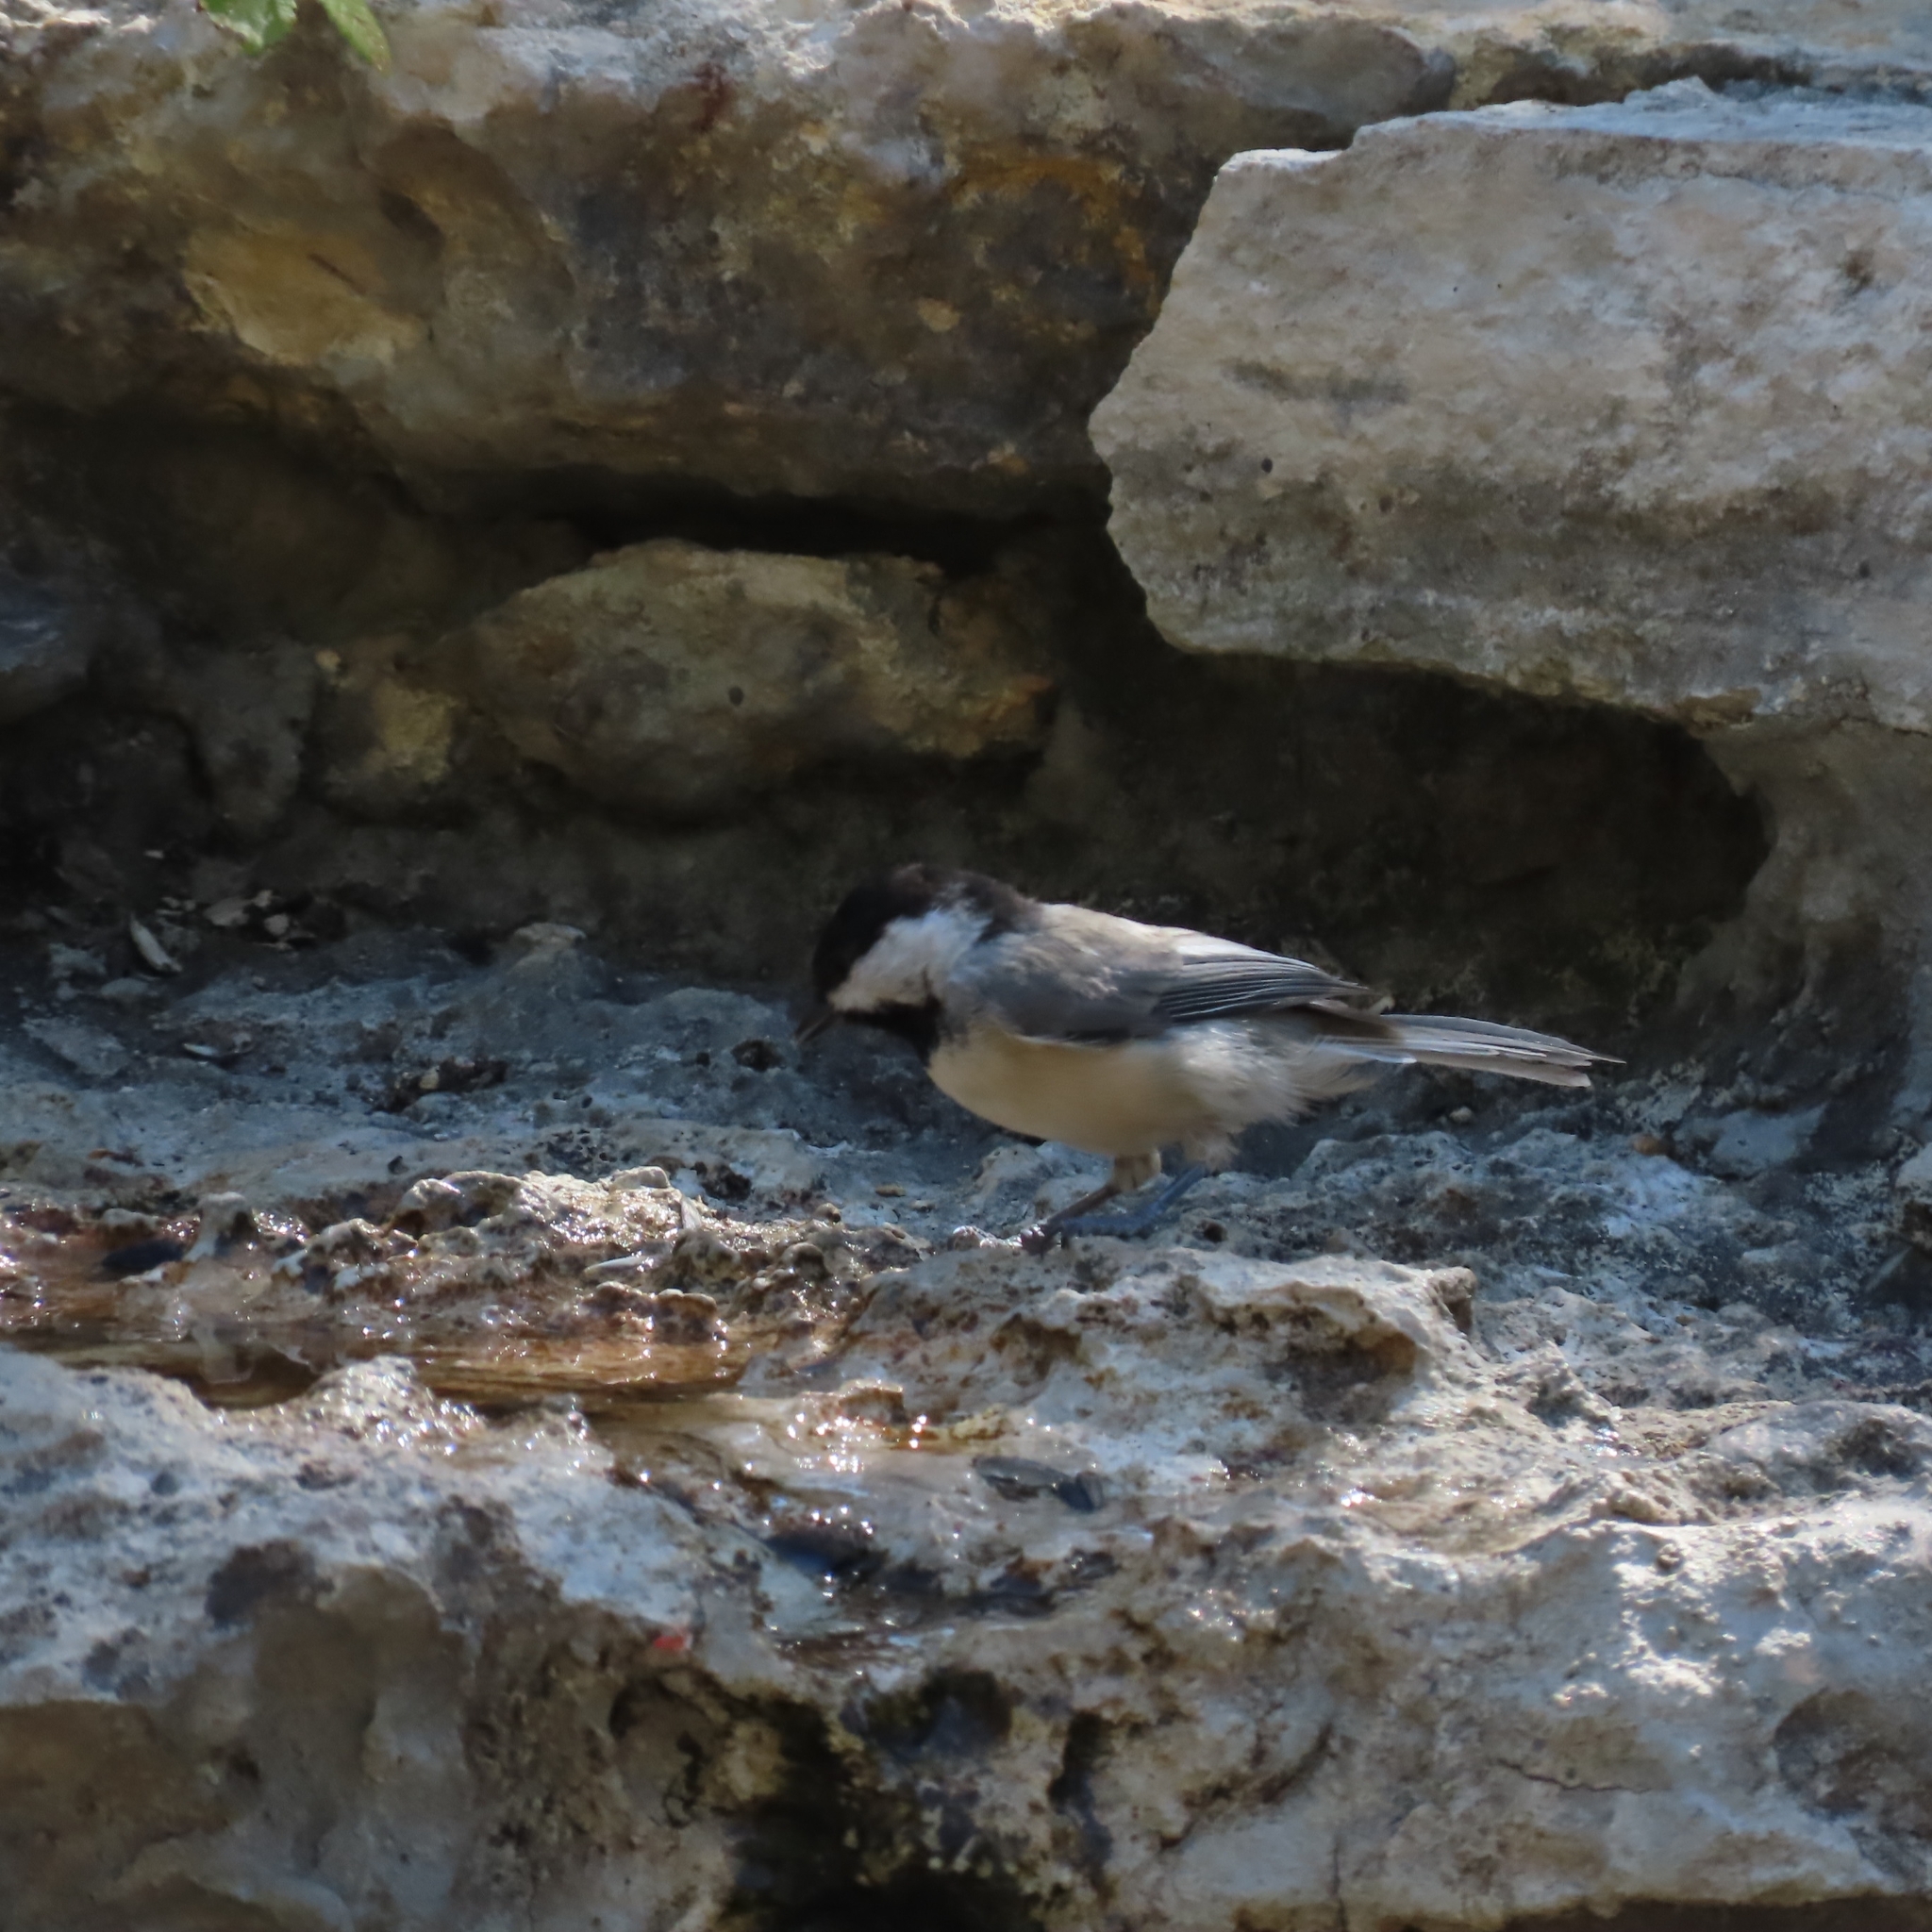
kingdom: Animalia
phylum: Chordata
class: Aves
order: Passeriformes
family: Paridae
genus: Poecile
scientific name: Poecile carolinensis
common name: Carolina chickadee
